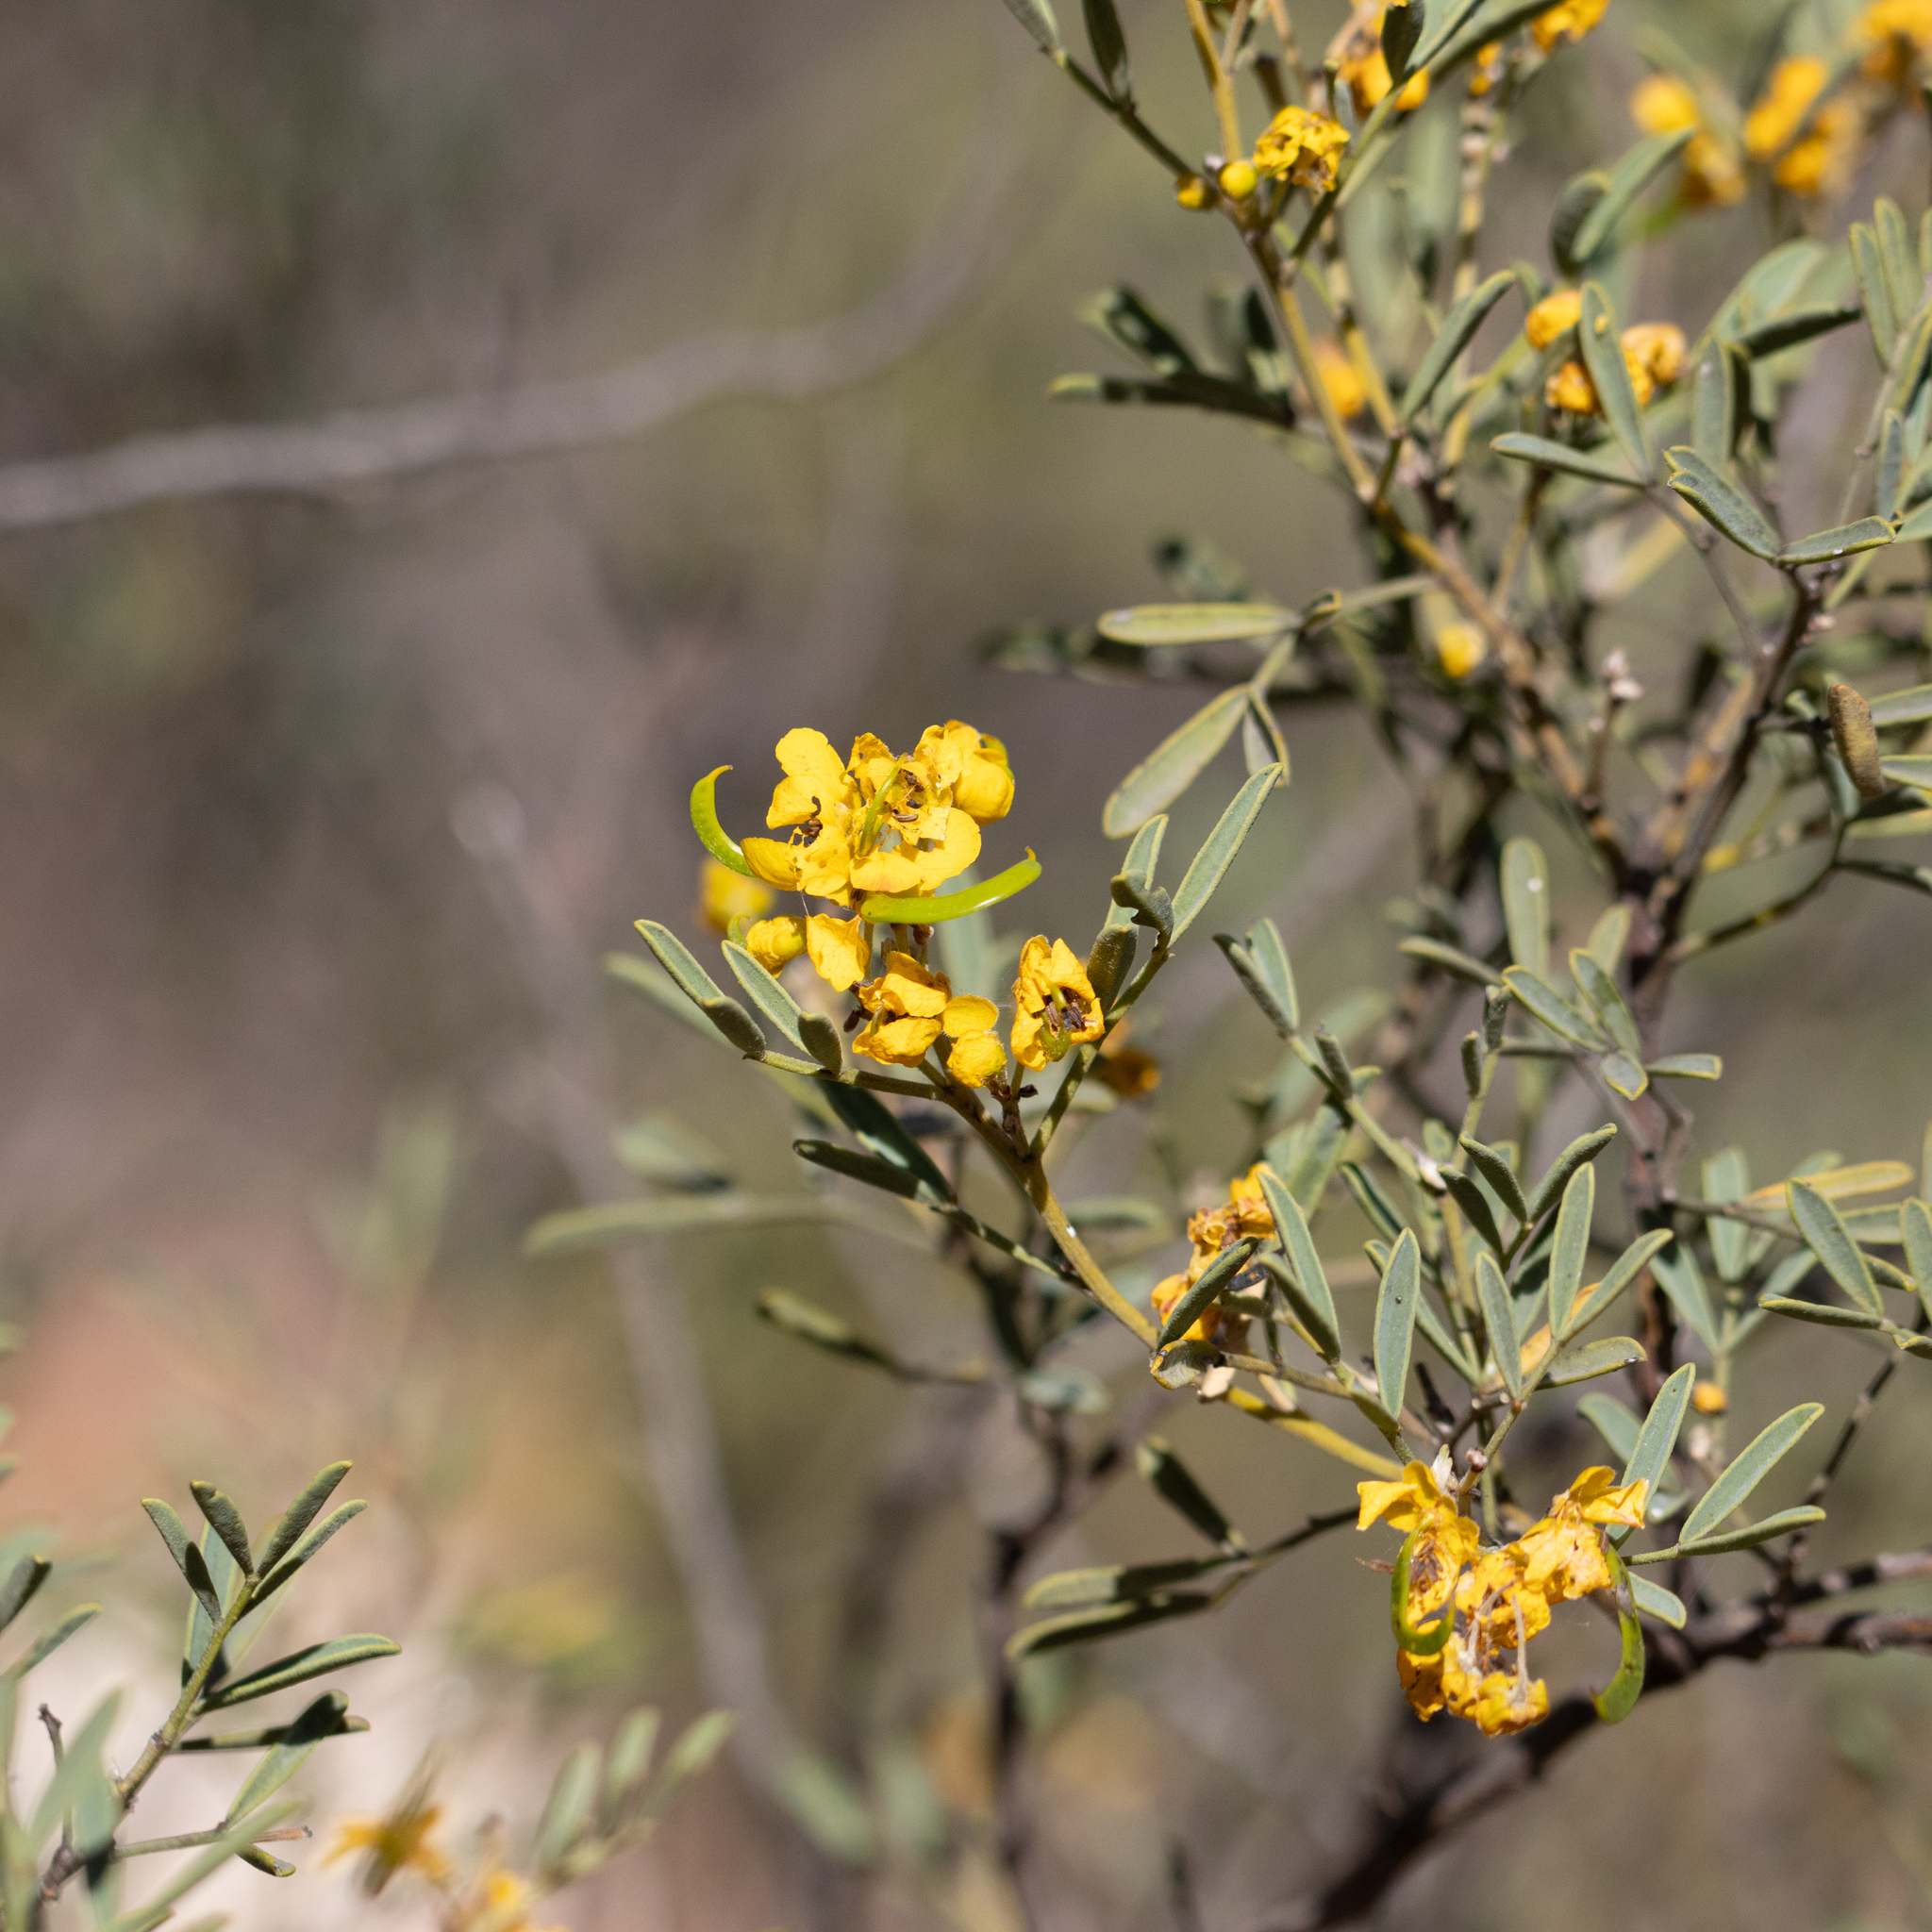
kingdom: Plantae
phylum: Tracheophyta
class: Magnoliopsida
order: Fabales
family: Fabaceae
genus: Senna
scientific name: Senna artemisioides
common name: Burnt-leaved acacia
